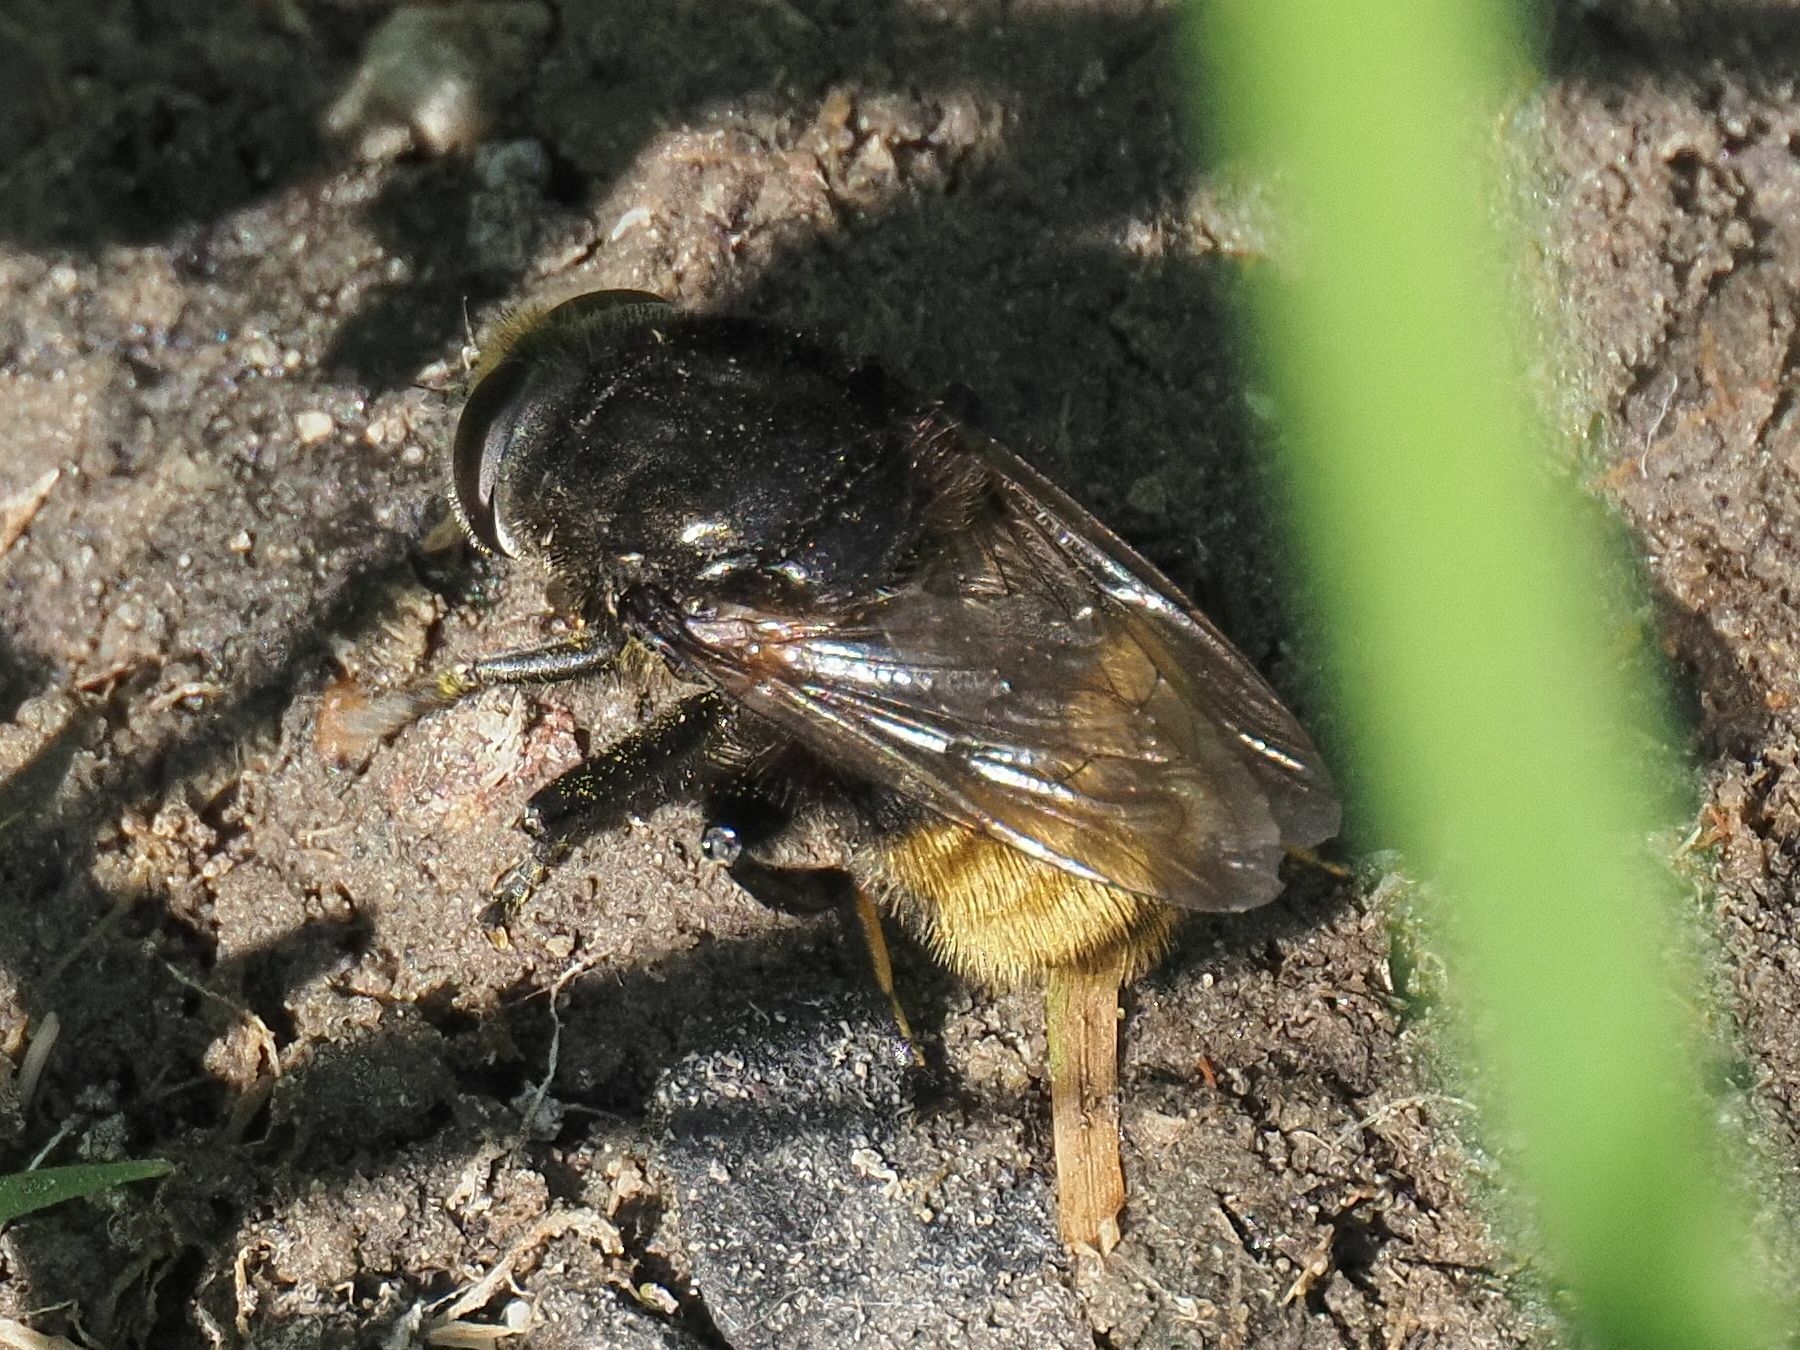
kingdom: Animalia
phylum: Arthropoda
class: Insecta
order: Diptera
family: Syrphidae
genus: Merodon
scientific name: Merodon equestris
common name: Greater bulb-fly
